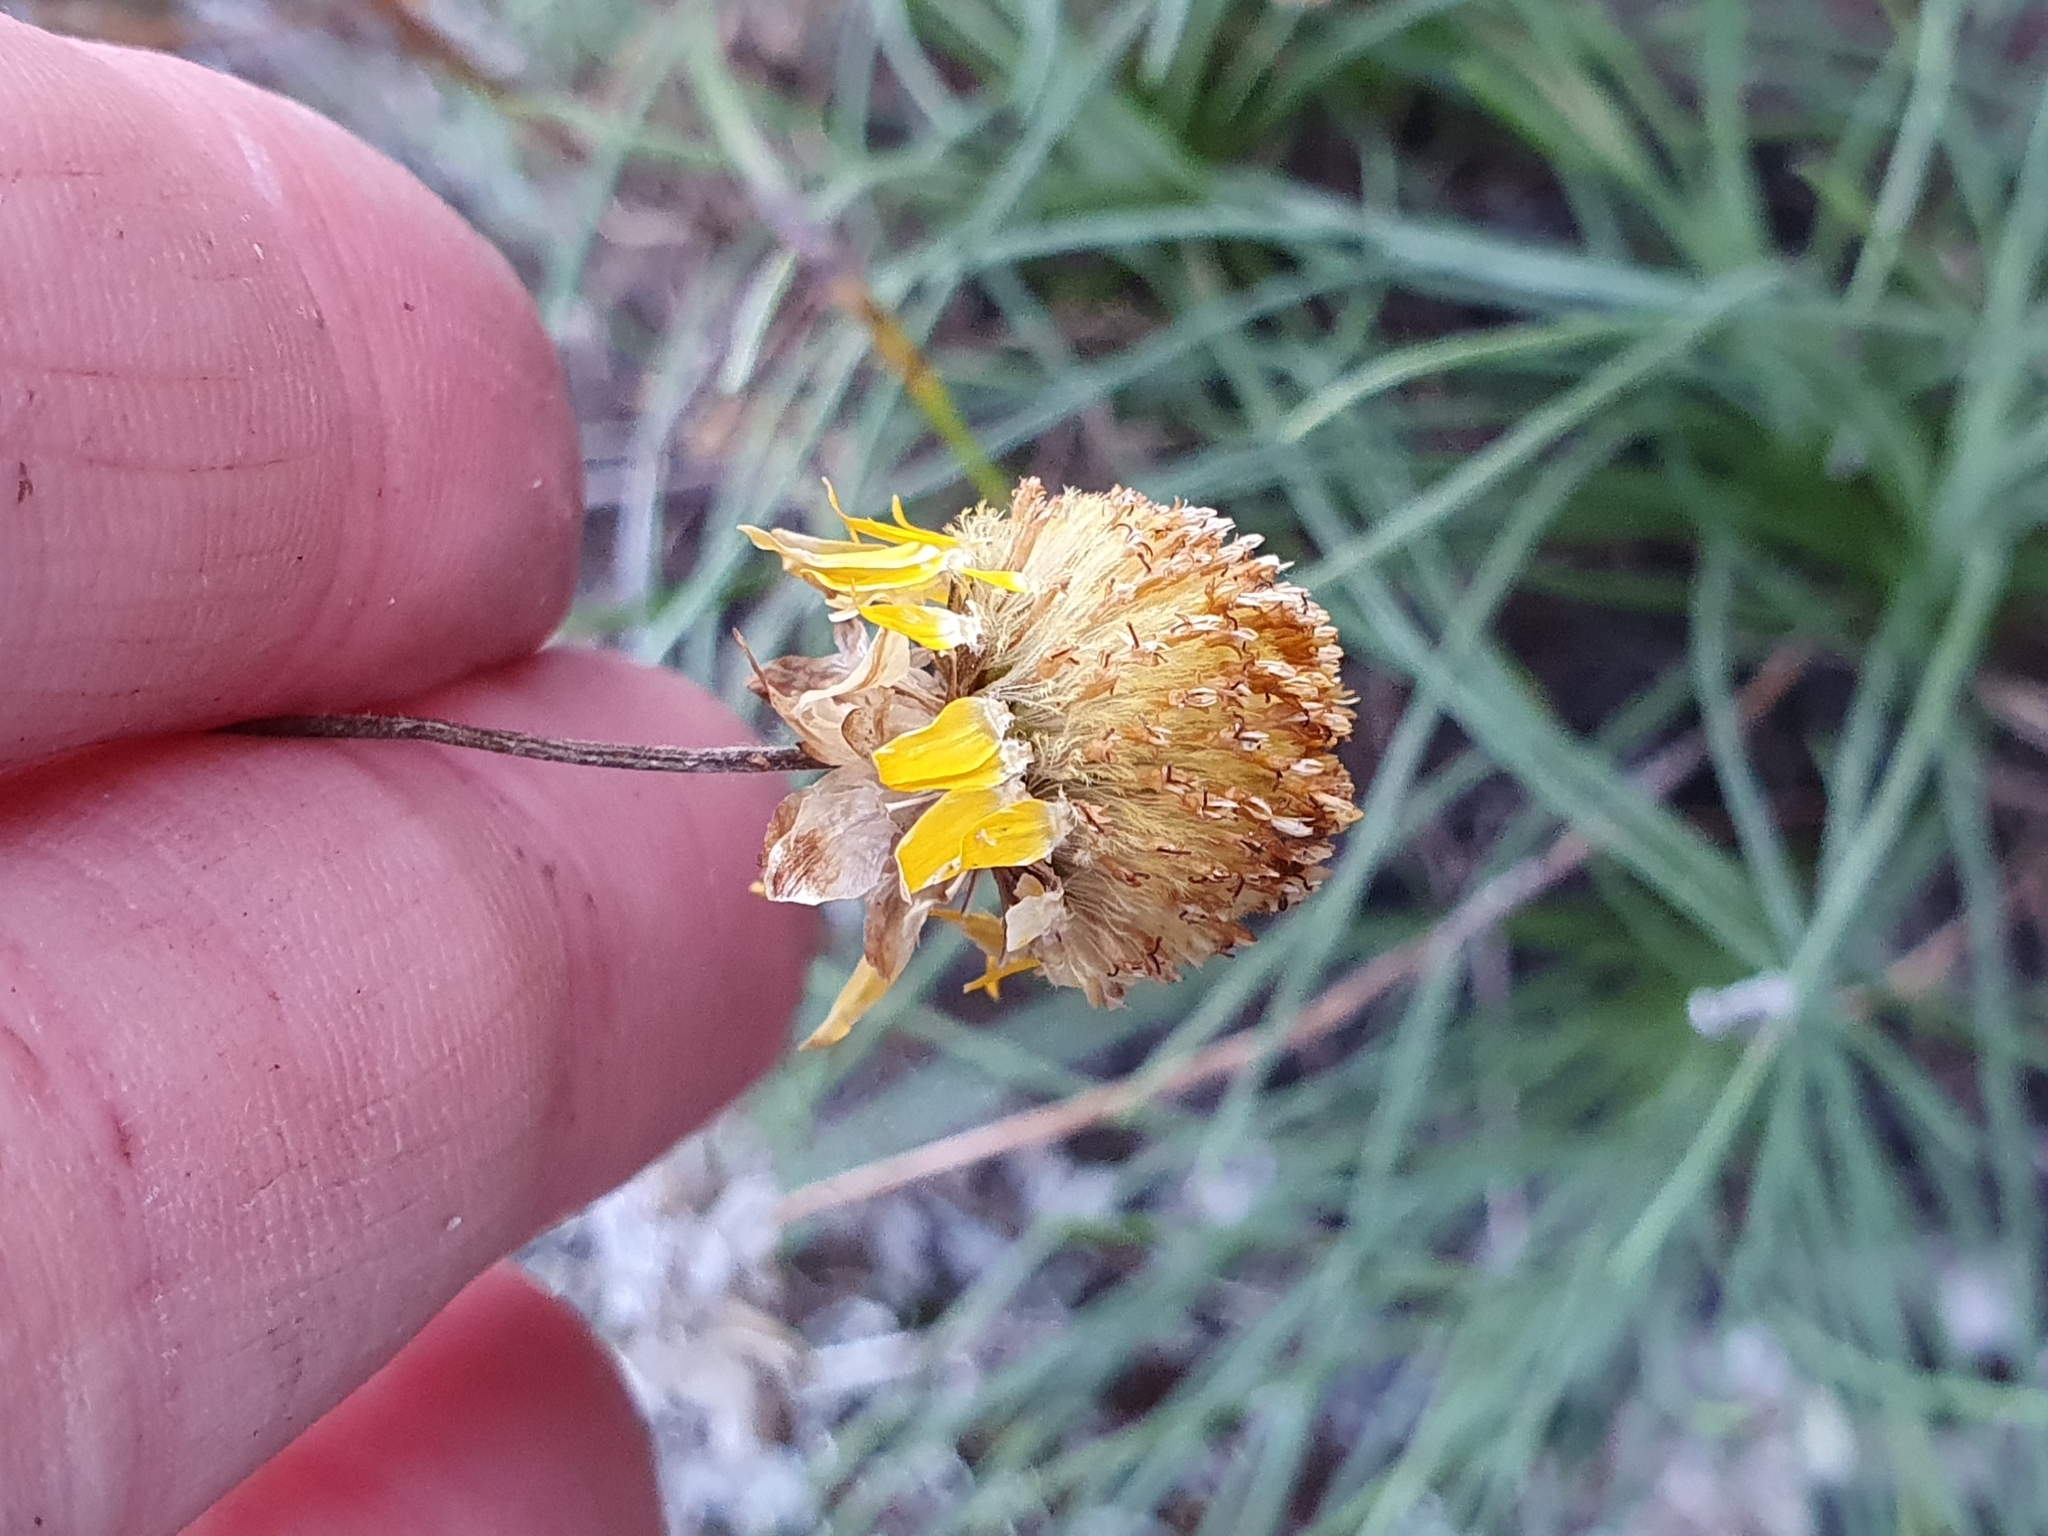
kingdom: Plantae
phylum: Tracheophyta
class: Magnoliopsida
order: Asterales
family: Asteraceae
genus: Leucochrysum
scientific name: Leucochrysum graminifolium
